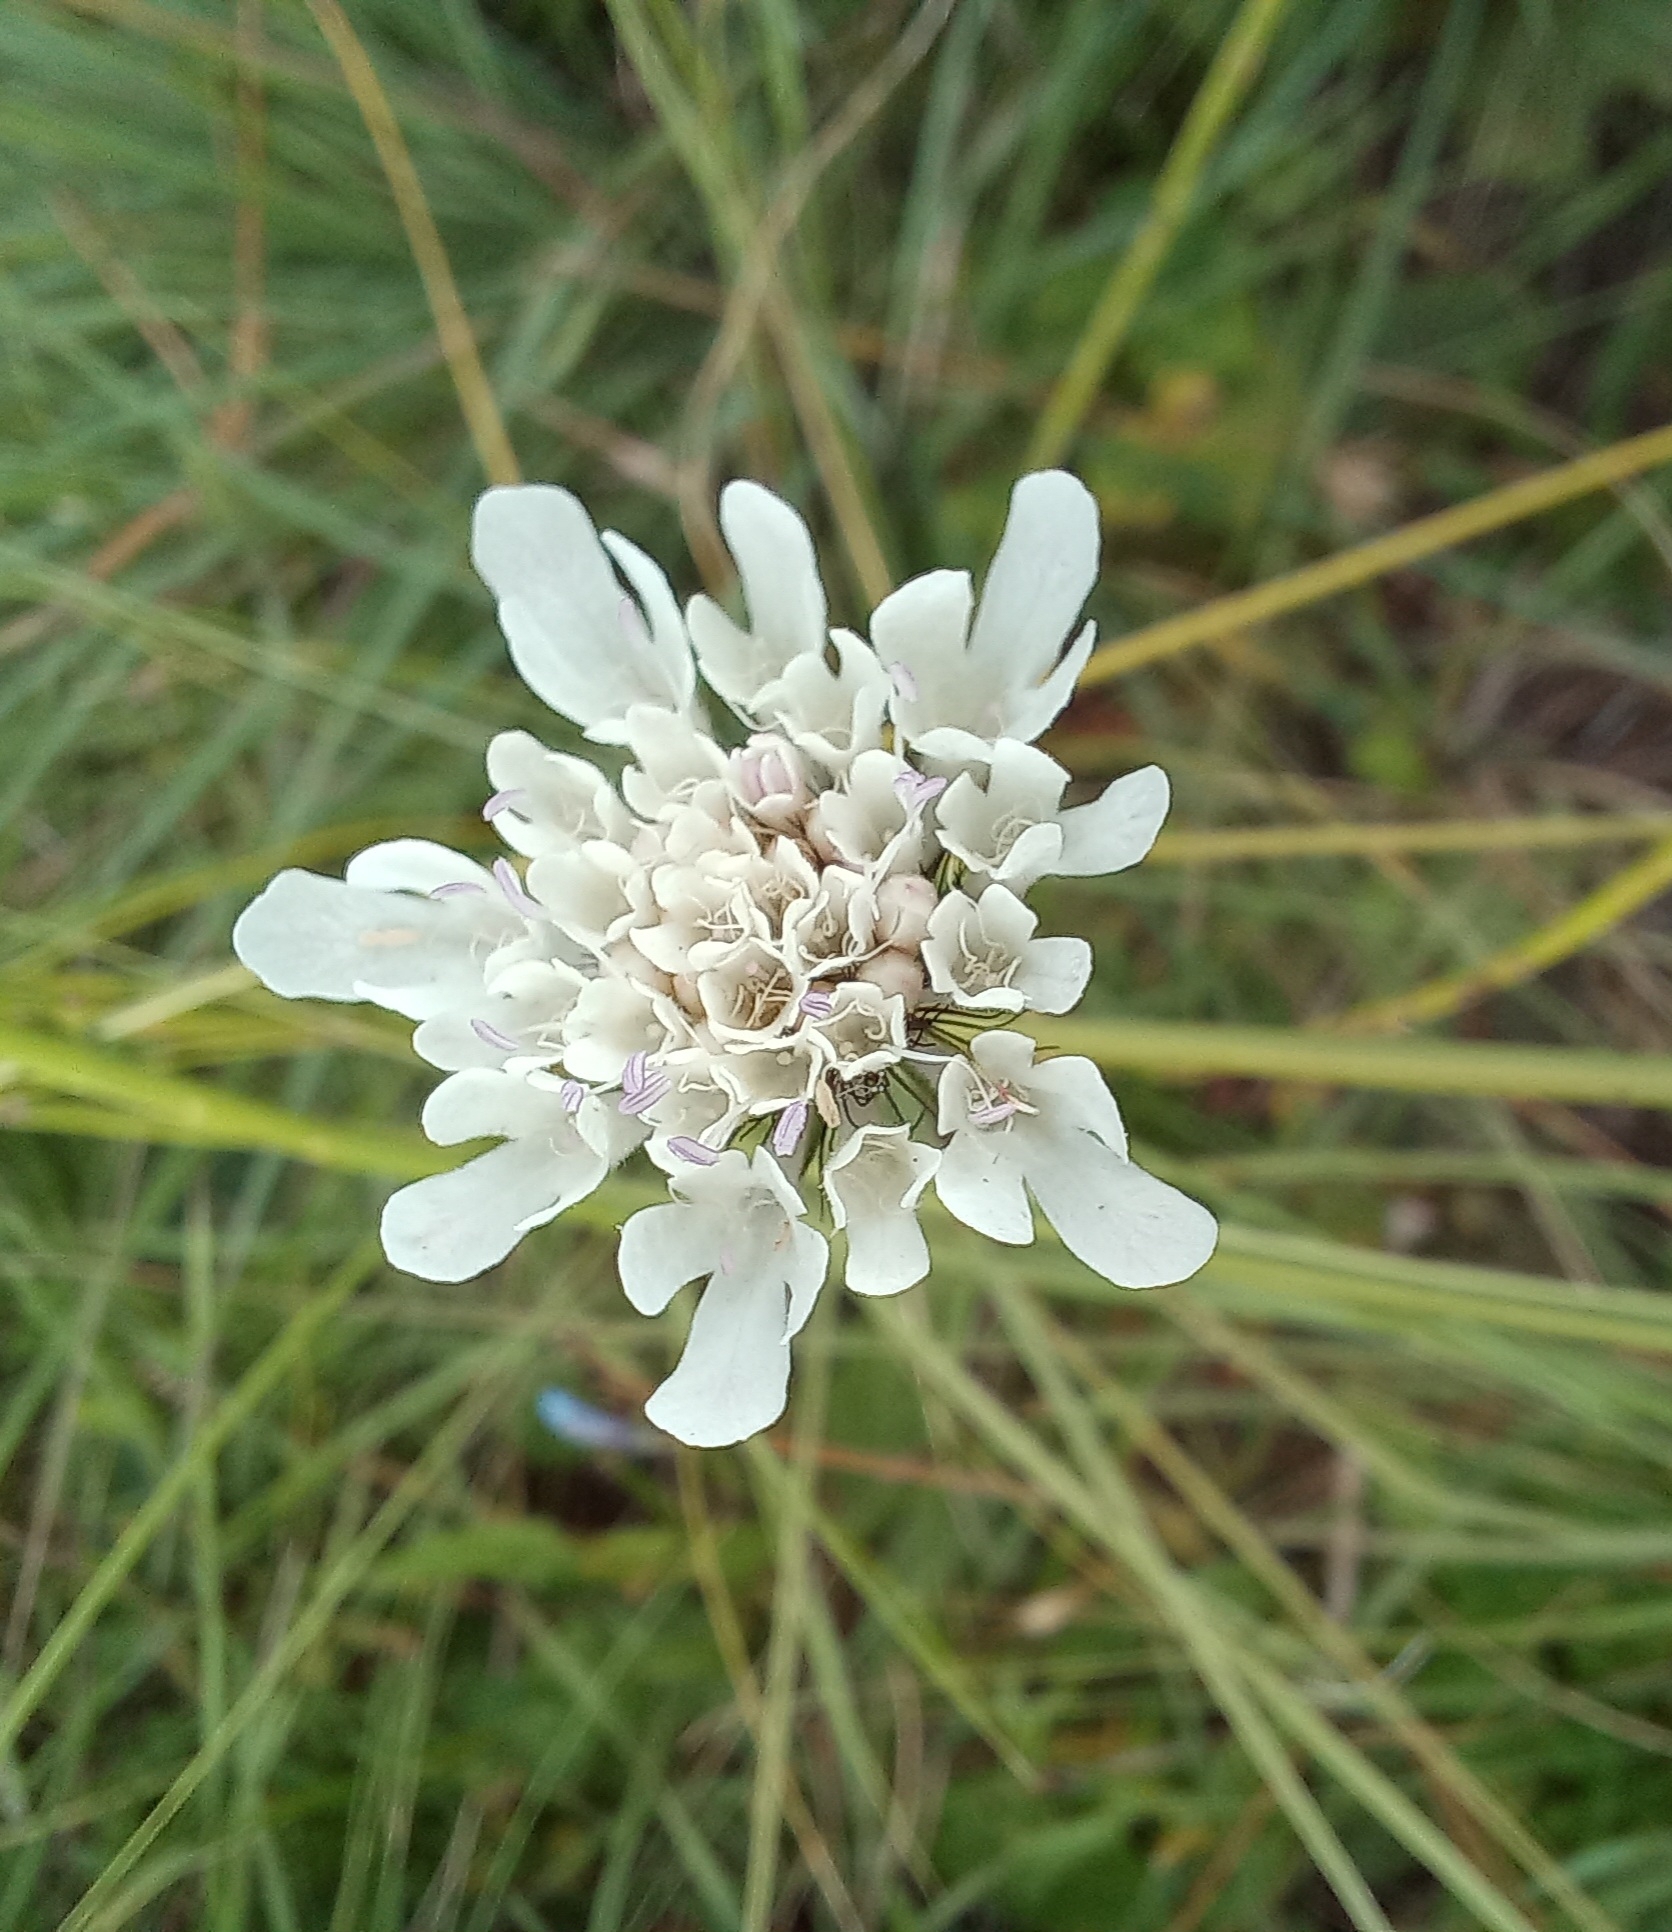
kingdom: Plantae
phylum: Tracheophyta
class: Magnoliopsida
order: Dipsacales
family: Caprifoliaceae
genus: Scabiosa
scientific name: Scabiosa columbaria
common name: Small scabious
